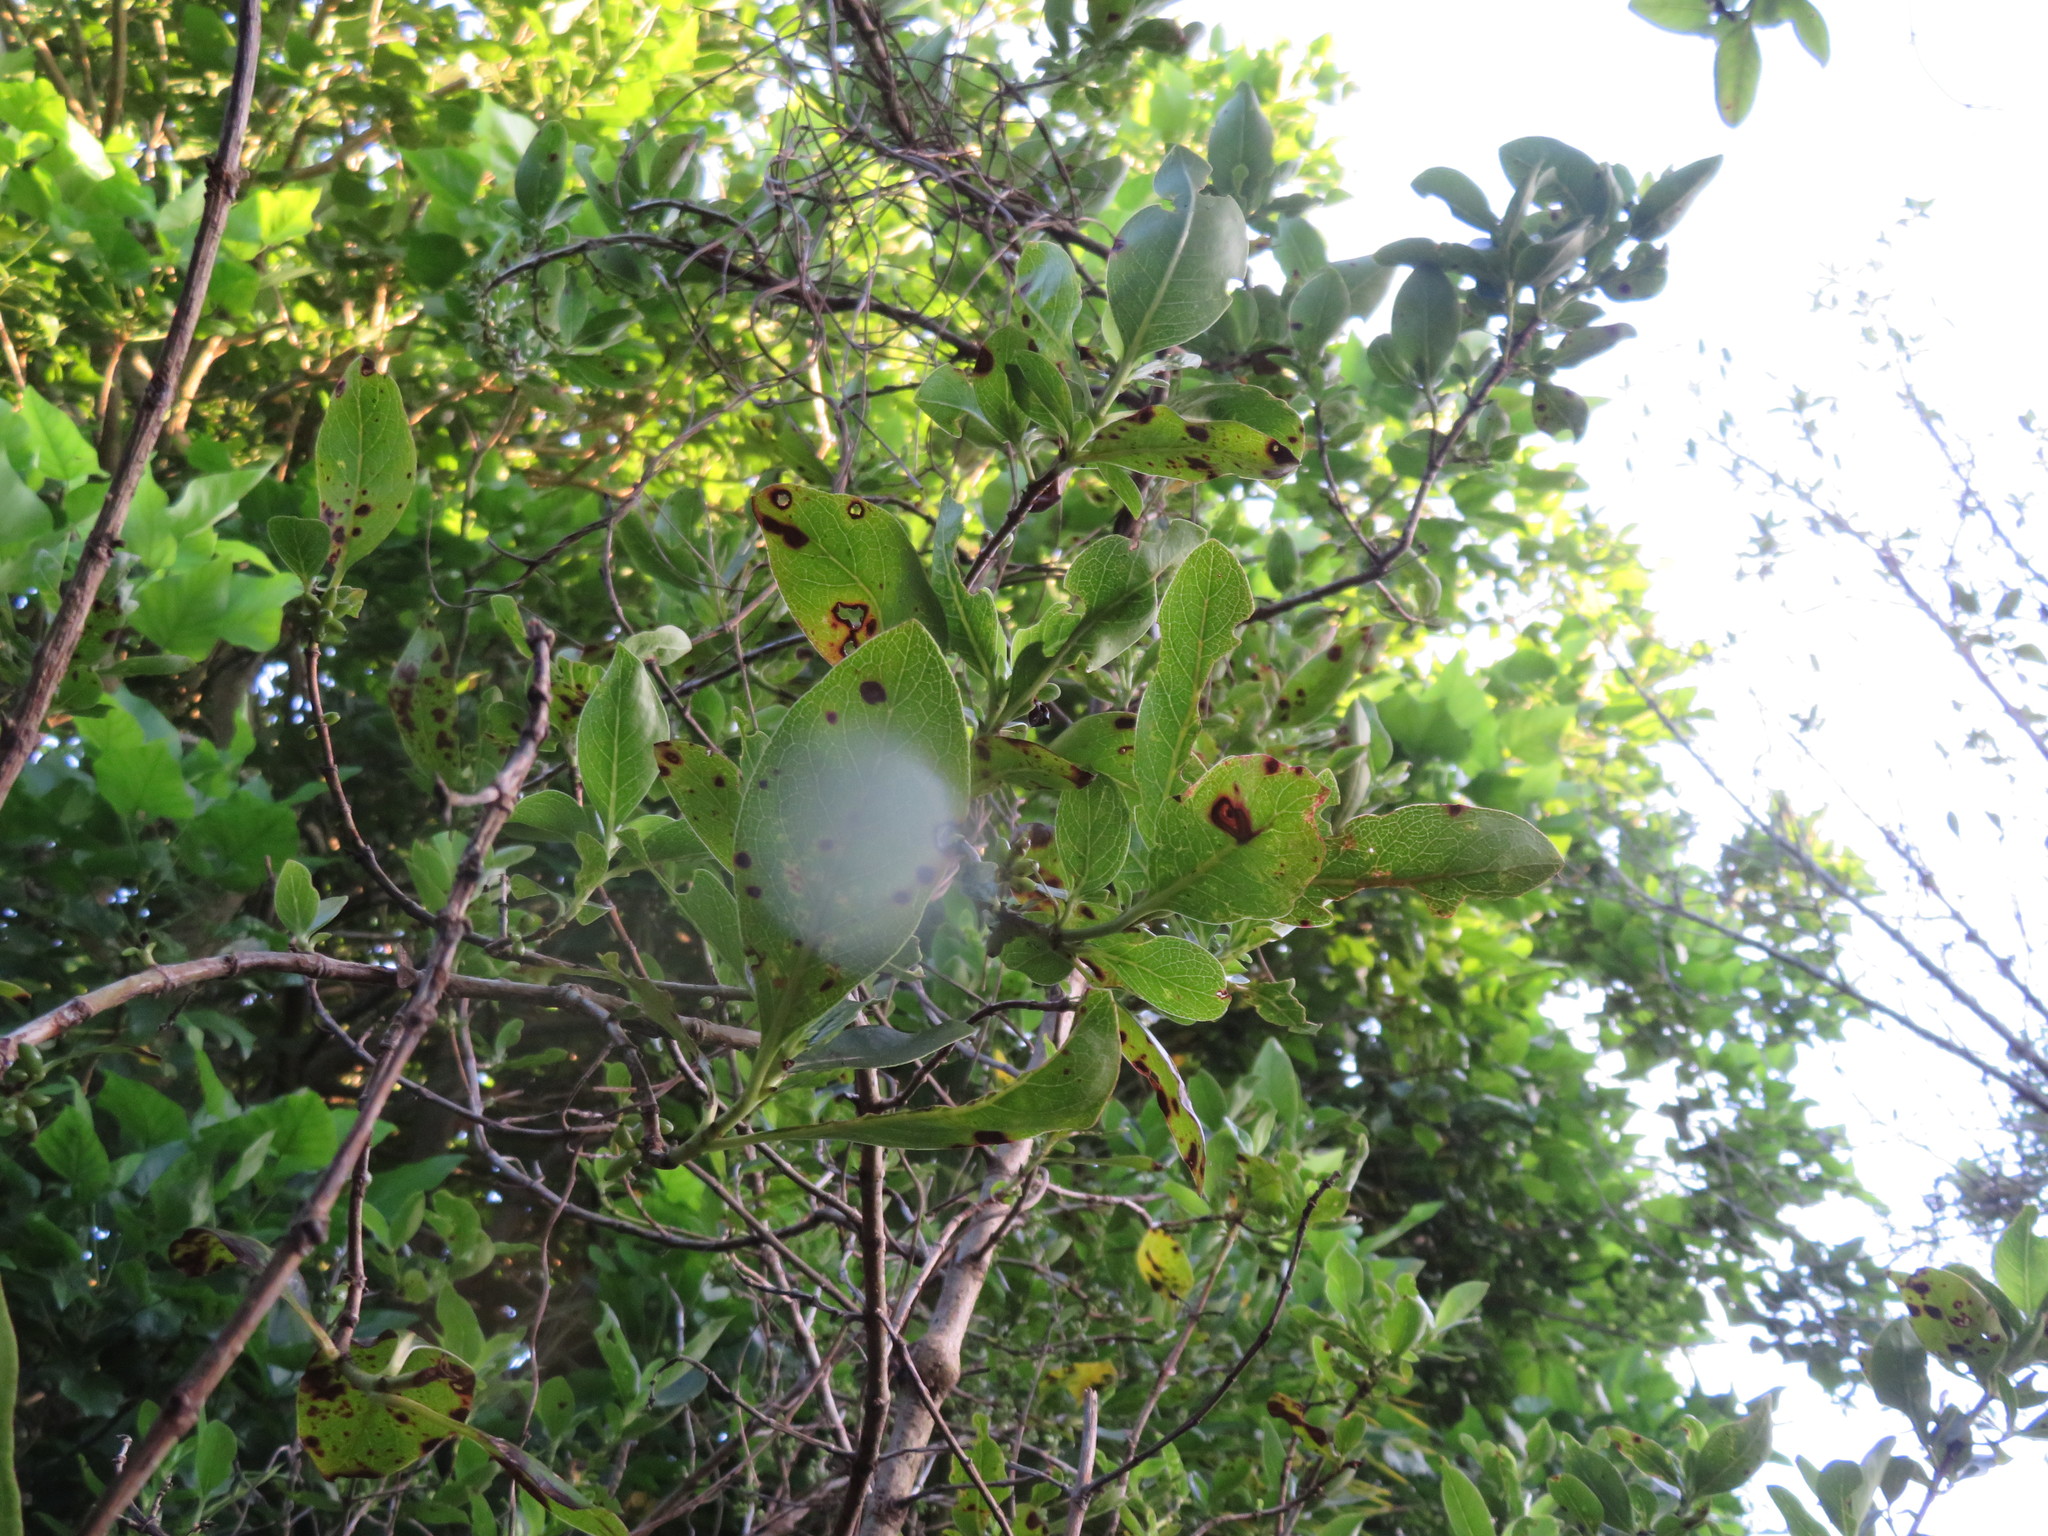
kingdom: Plantae
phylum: Tracheophyta
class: Magnoliopsida
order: Gentianales
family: Rubiaceae
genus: Coprosma
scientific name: Coprosma robusta
